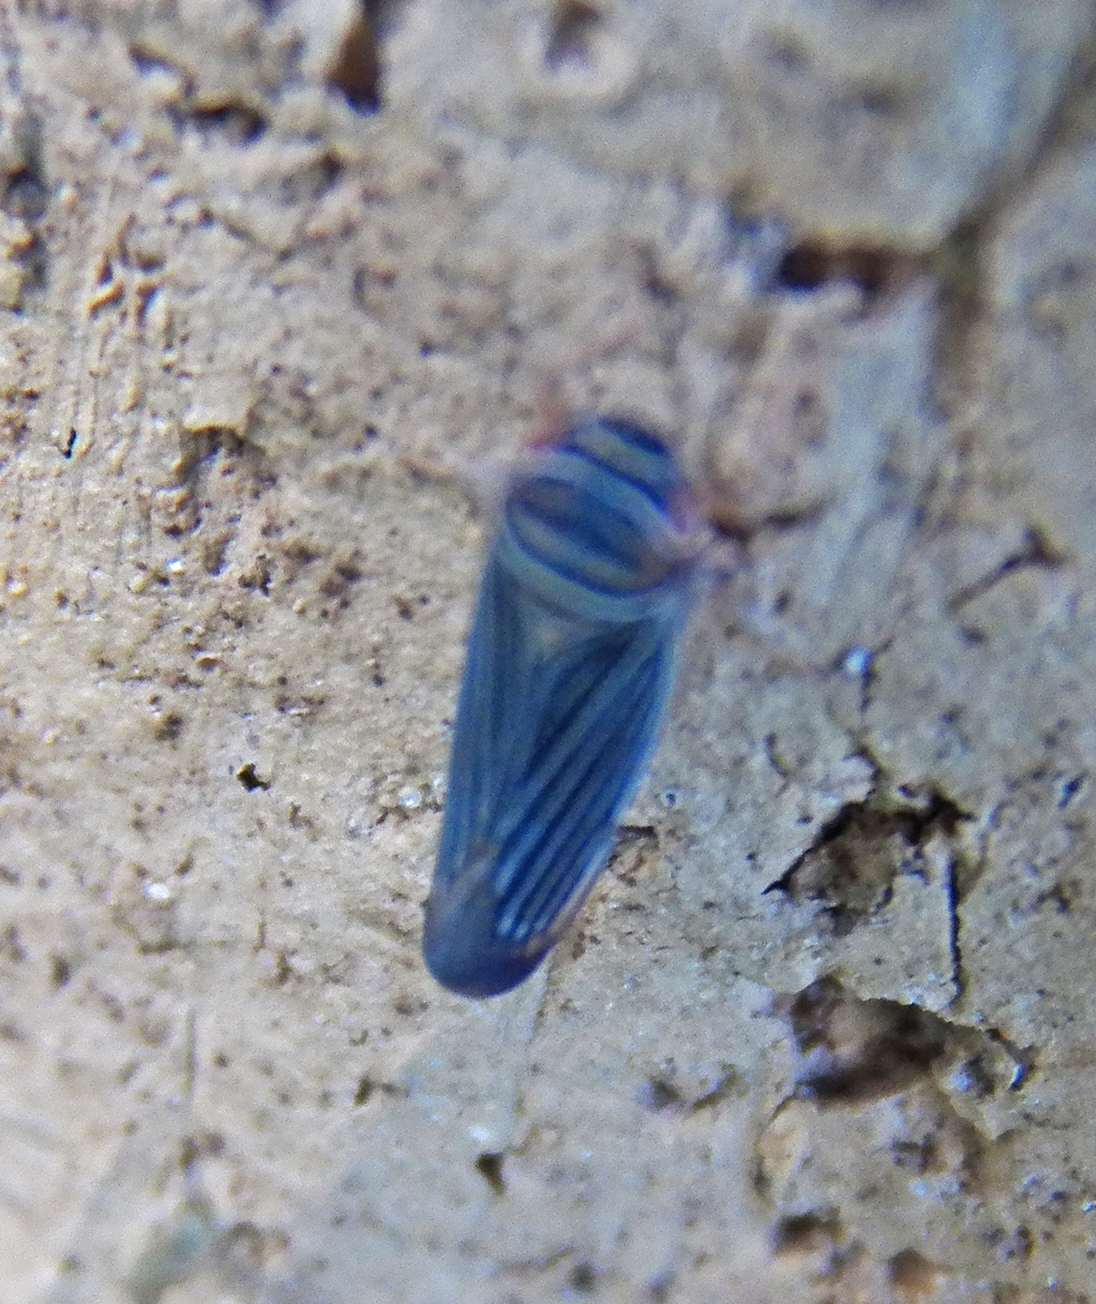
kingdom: Animalia
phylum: Arthropoda
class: Insecta
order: Hemiptera
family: Cicadellidae
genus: Tylozygus
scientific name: Tylozygus bifidus
